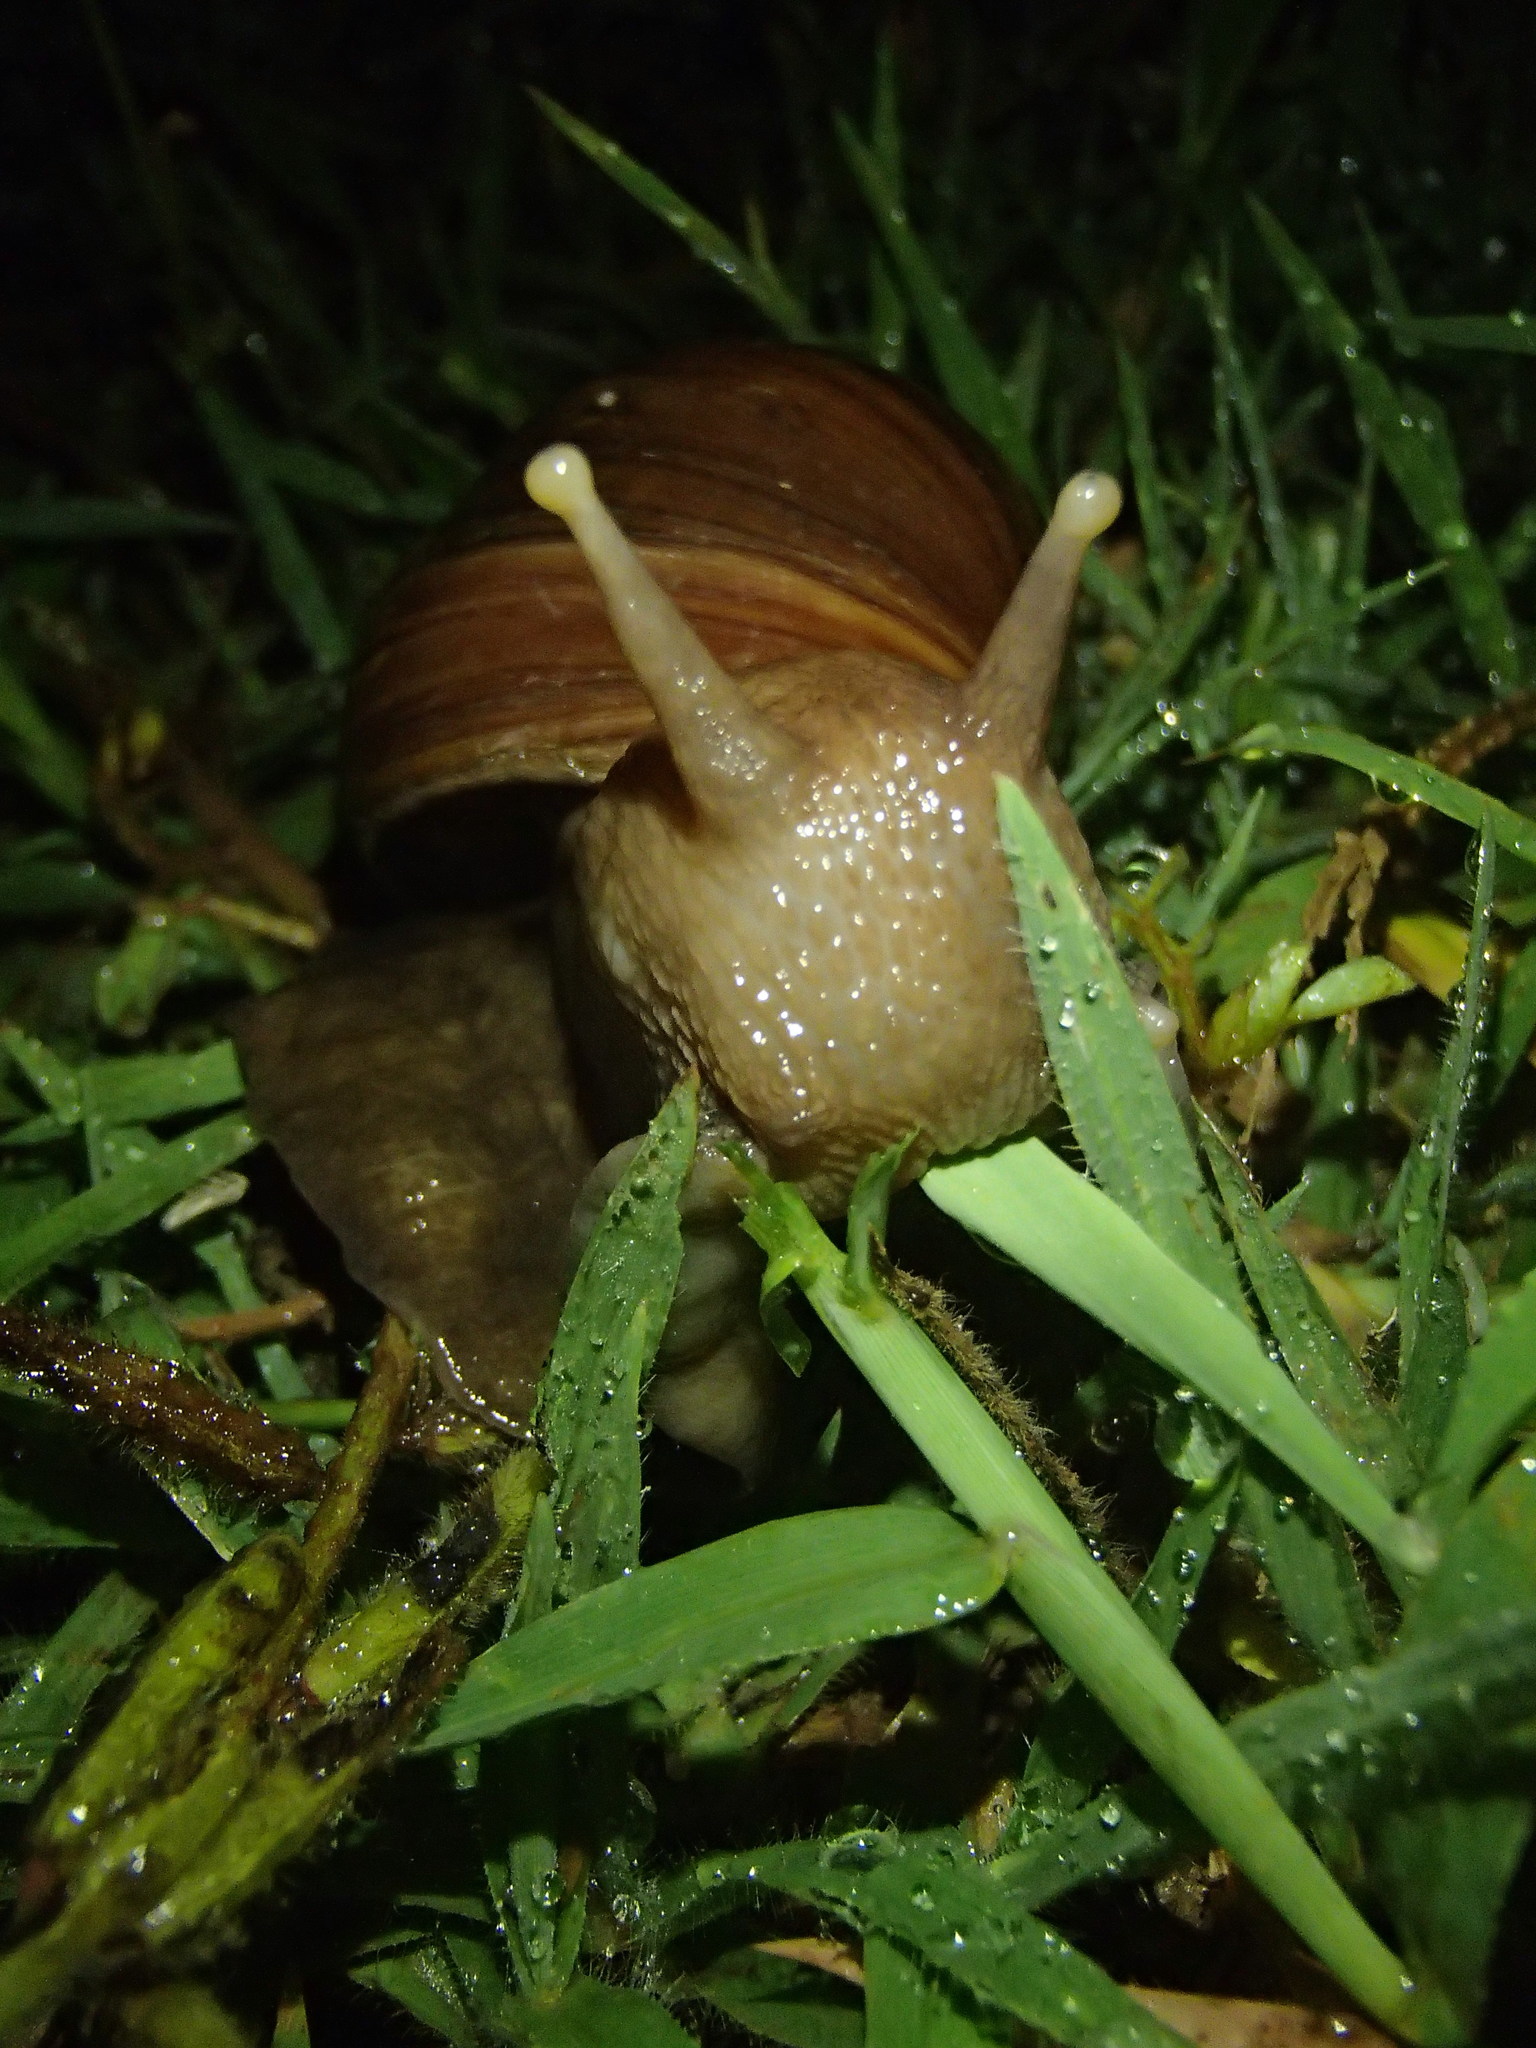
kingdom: Animalia
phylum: Mollusca
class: Gastropoda
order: Stylommatophora
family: Achatinidae
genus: Lissachatina
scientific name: Lissachatina fulica
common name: Giant african snail
